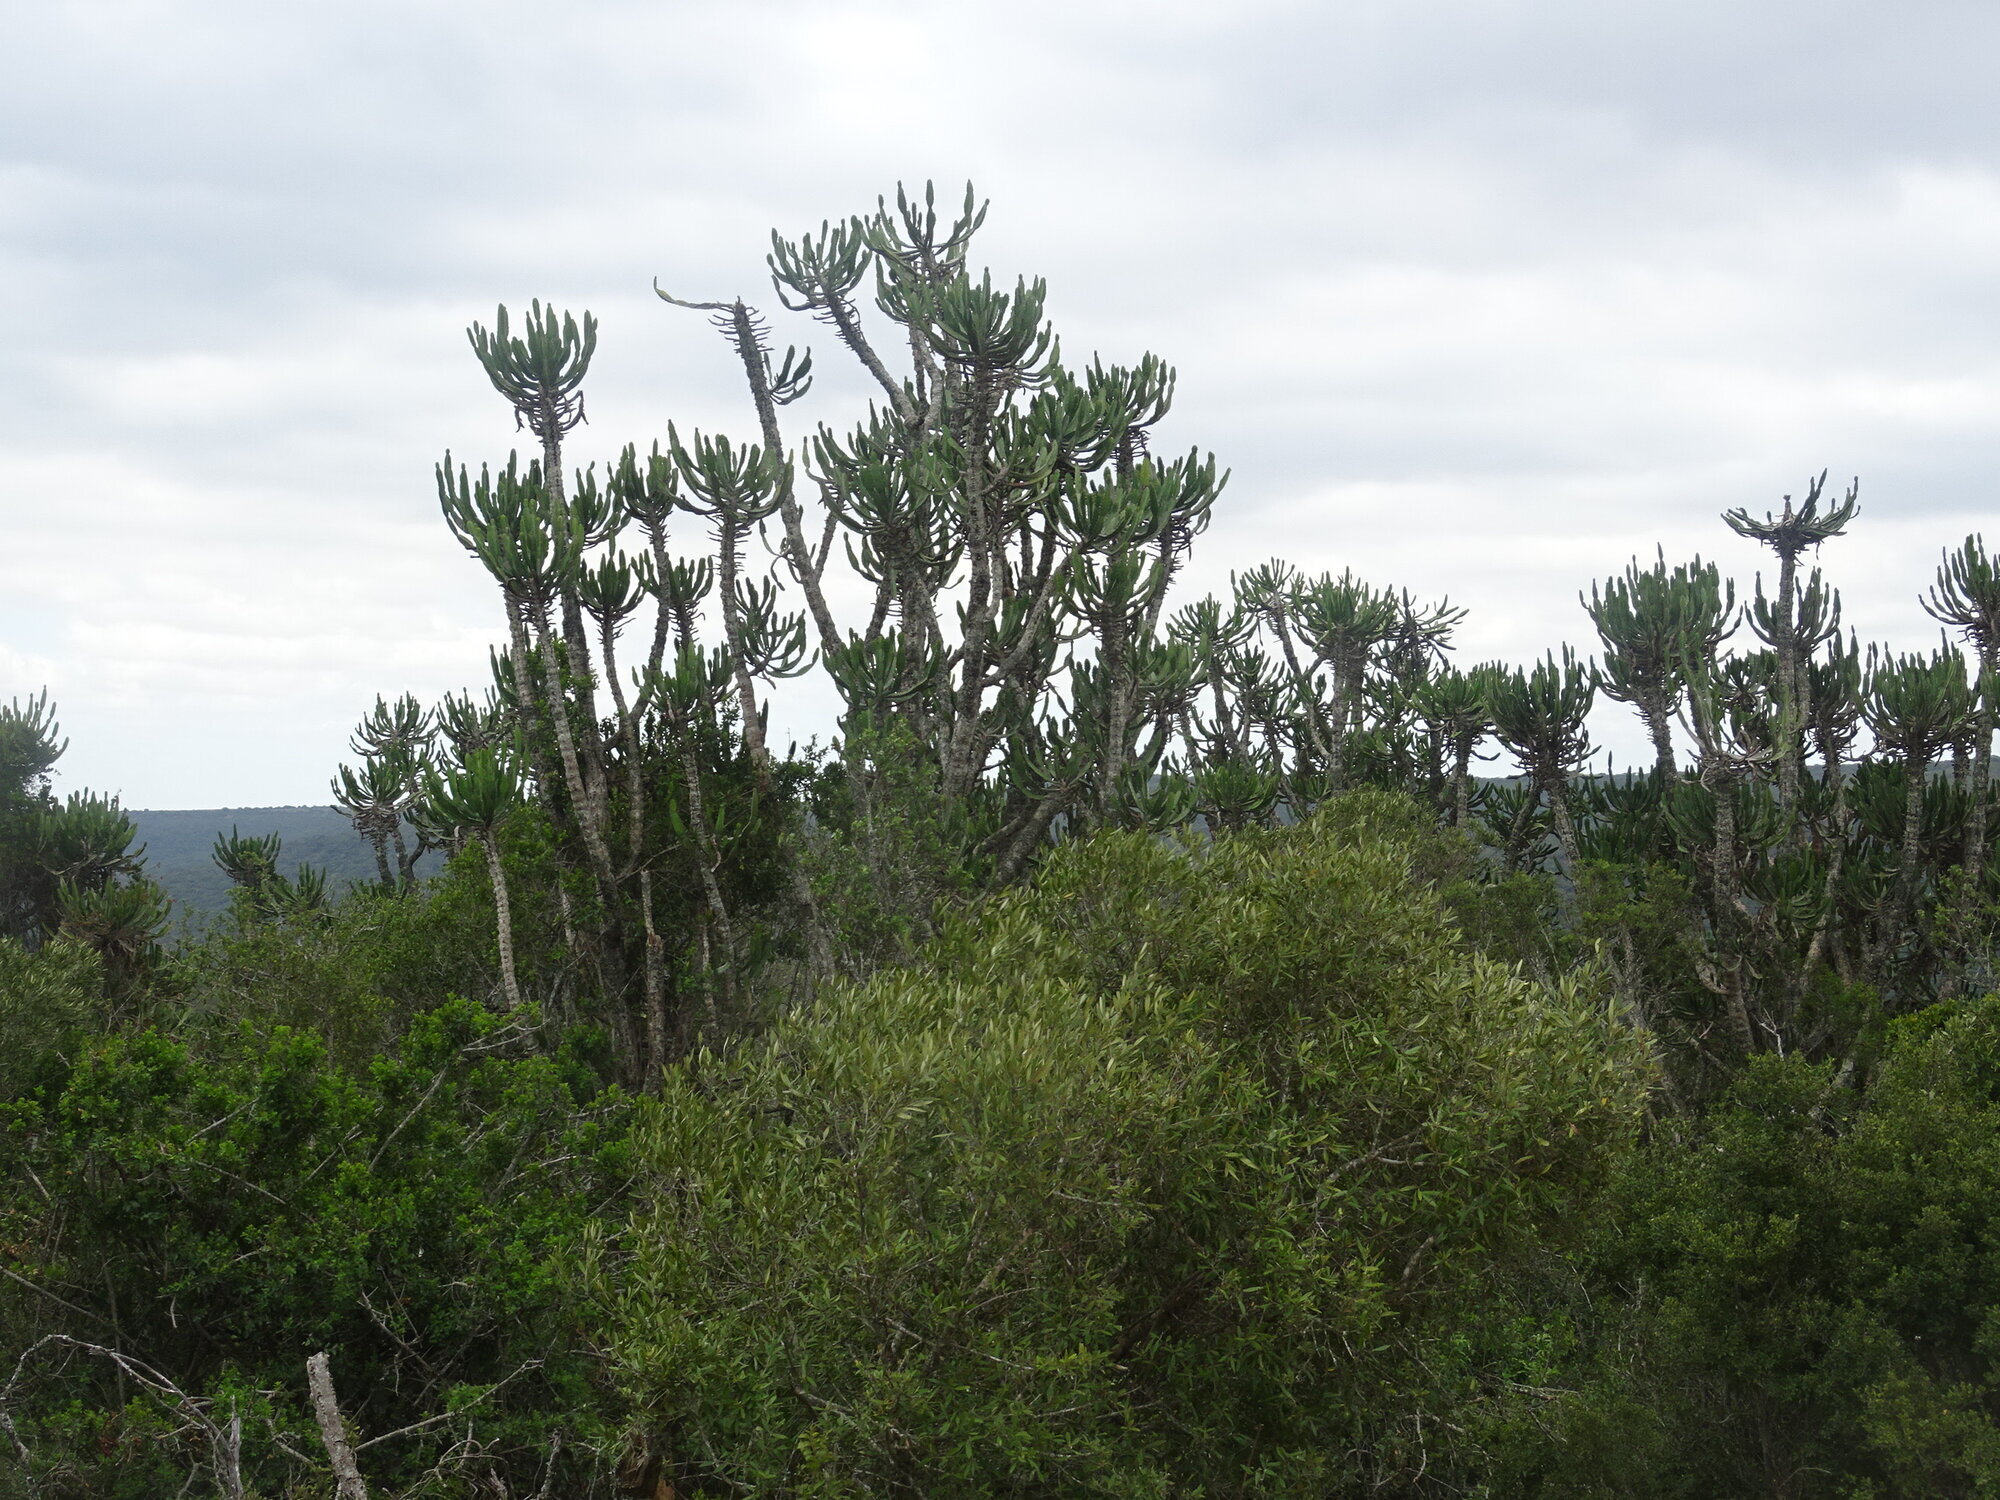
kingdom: Plantae
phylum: Tracheophyta
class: Magnoliopsida
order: Malpighiales
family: Euphorbiaceae
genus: Euphorbia
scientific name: Euphorbia triangularis
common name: Chandelier tree
